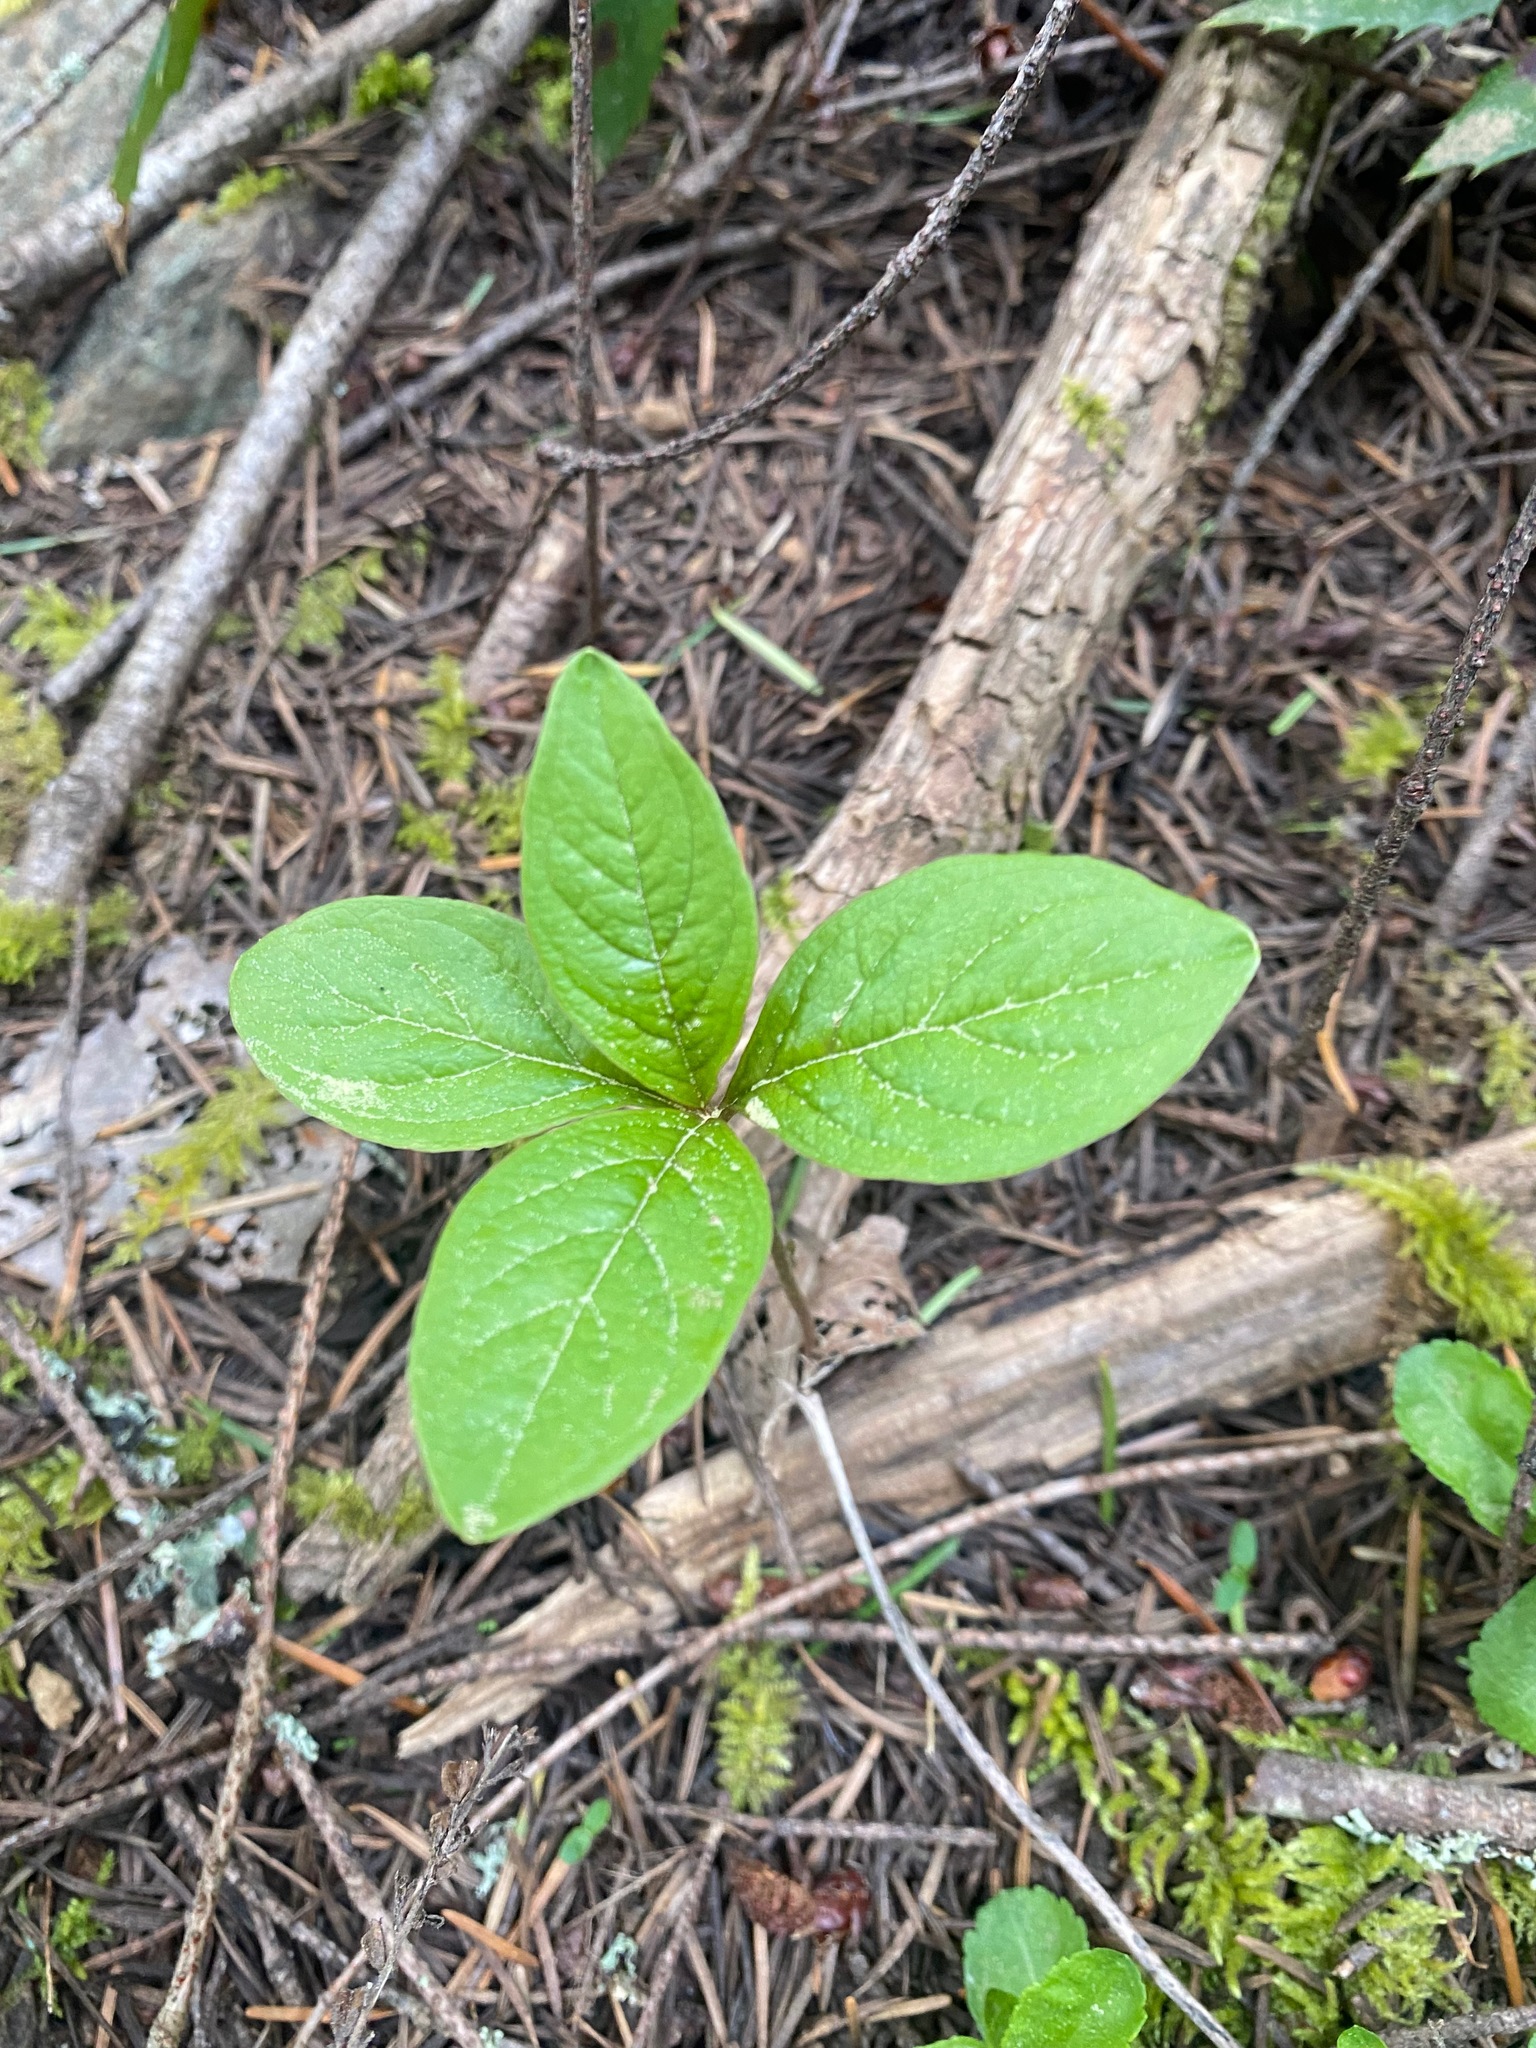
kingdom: Plantae
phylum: Tracheophyta
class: Magnoliopsida
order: Ericales
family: Primulaceae
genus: Lysimachia
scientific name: Lysimachia latifolia
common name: Pacific starflower
